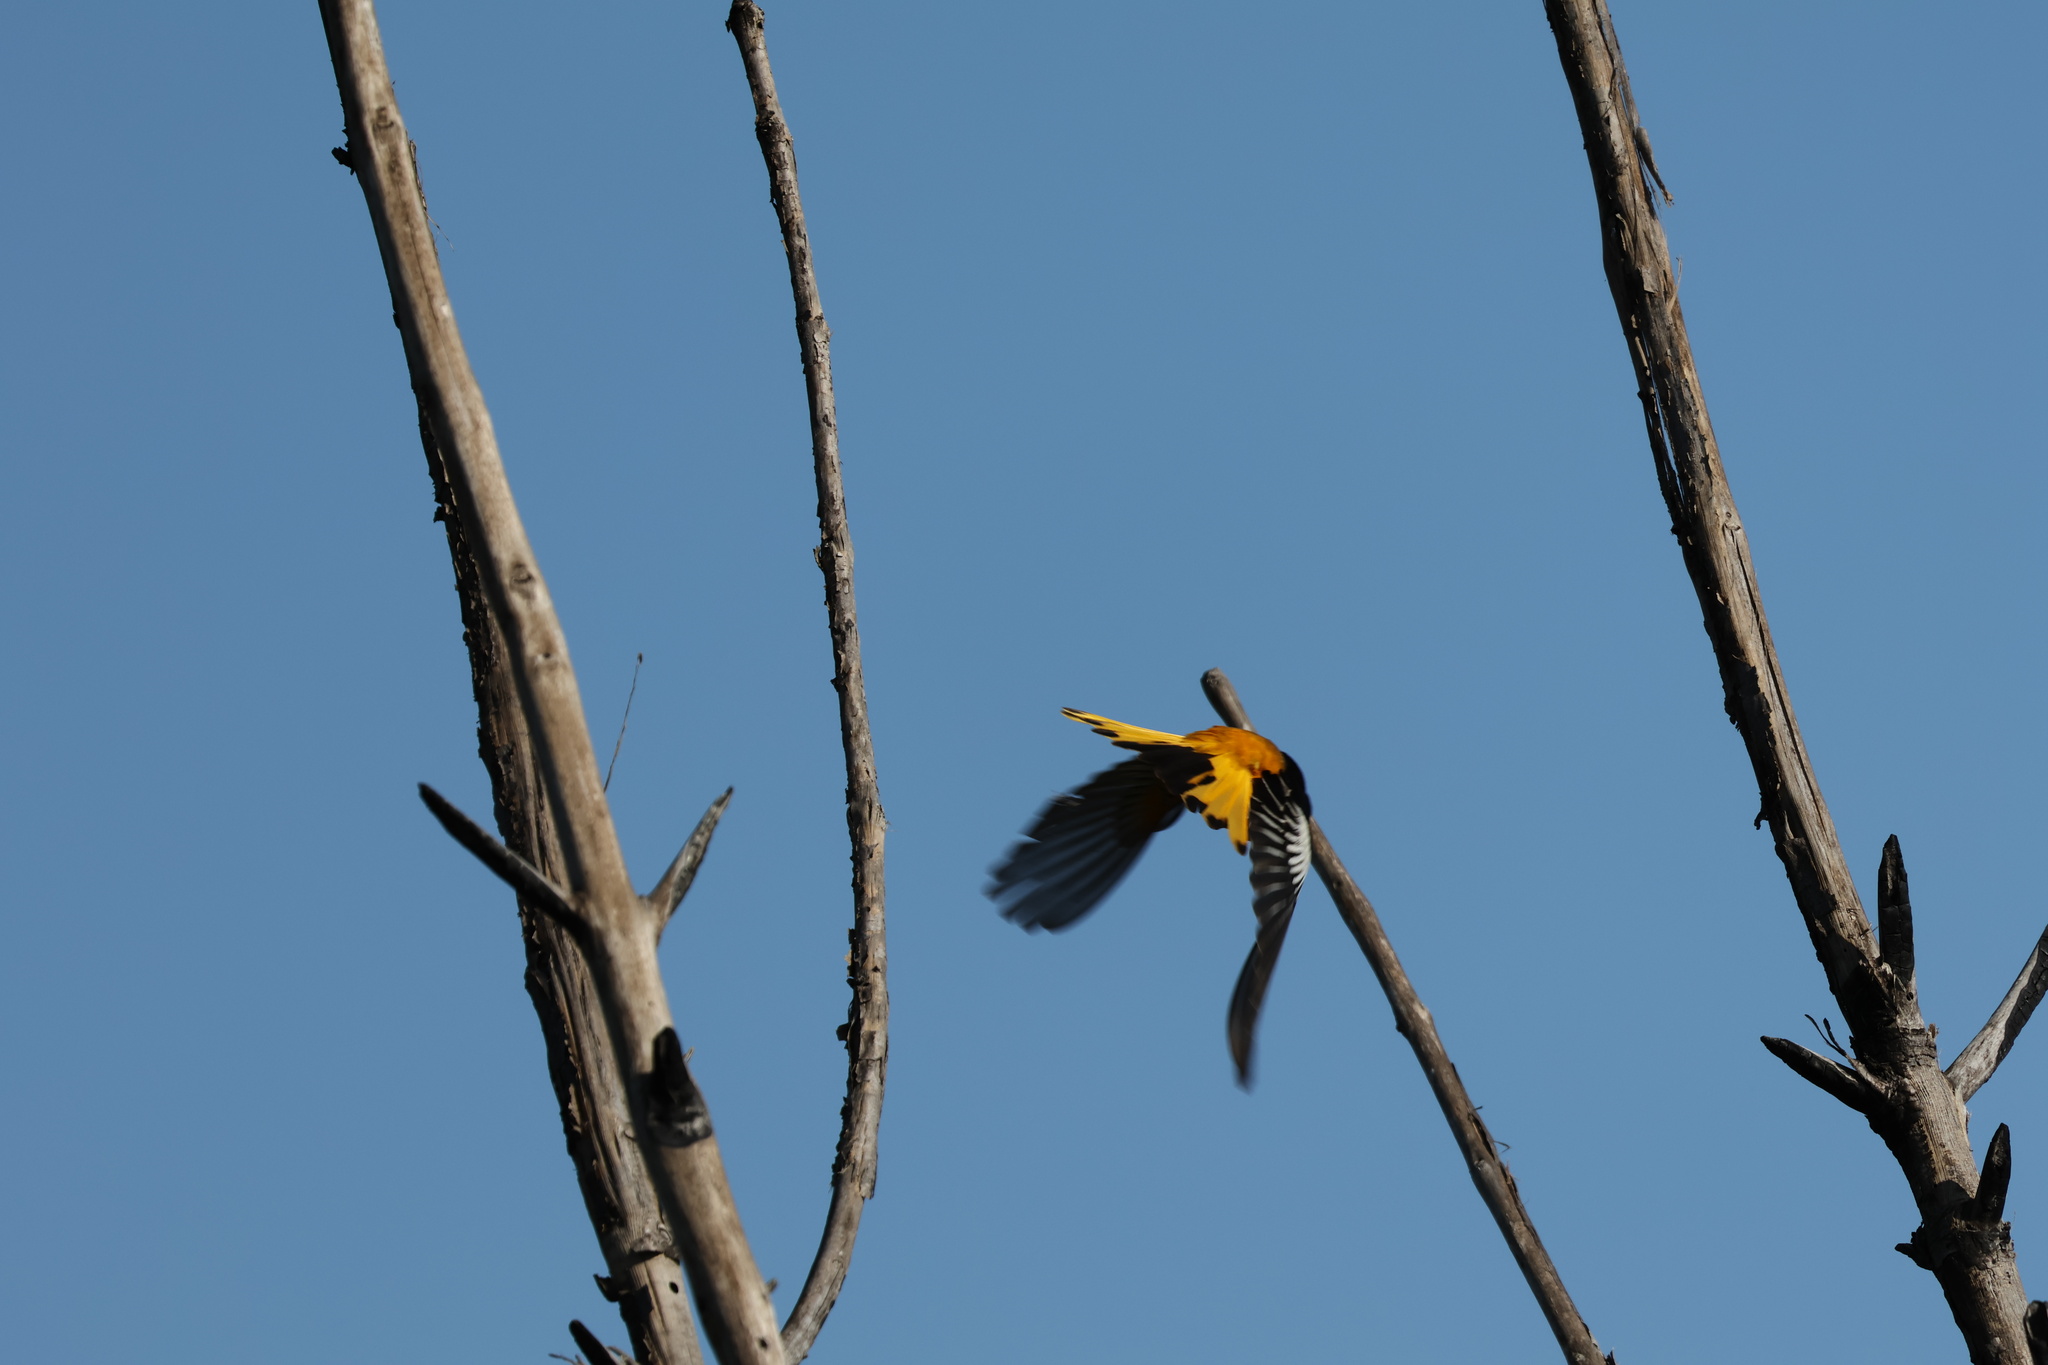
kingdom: Animalia
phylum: Chordata
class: Aves
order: Passeriformes
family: Icteridae
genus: Icterus
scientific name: Icterus bullockii
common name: Bullock's oriole
